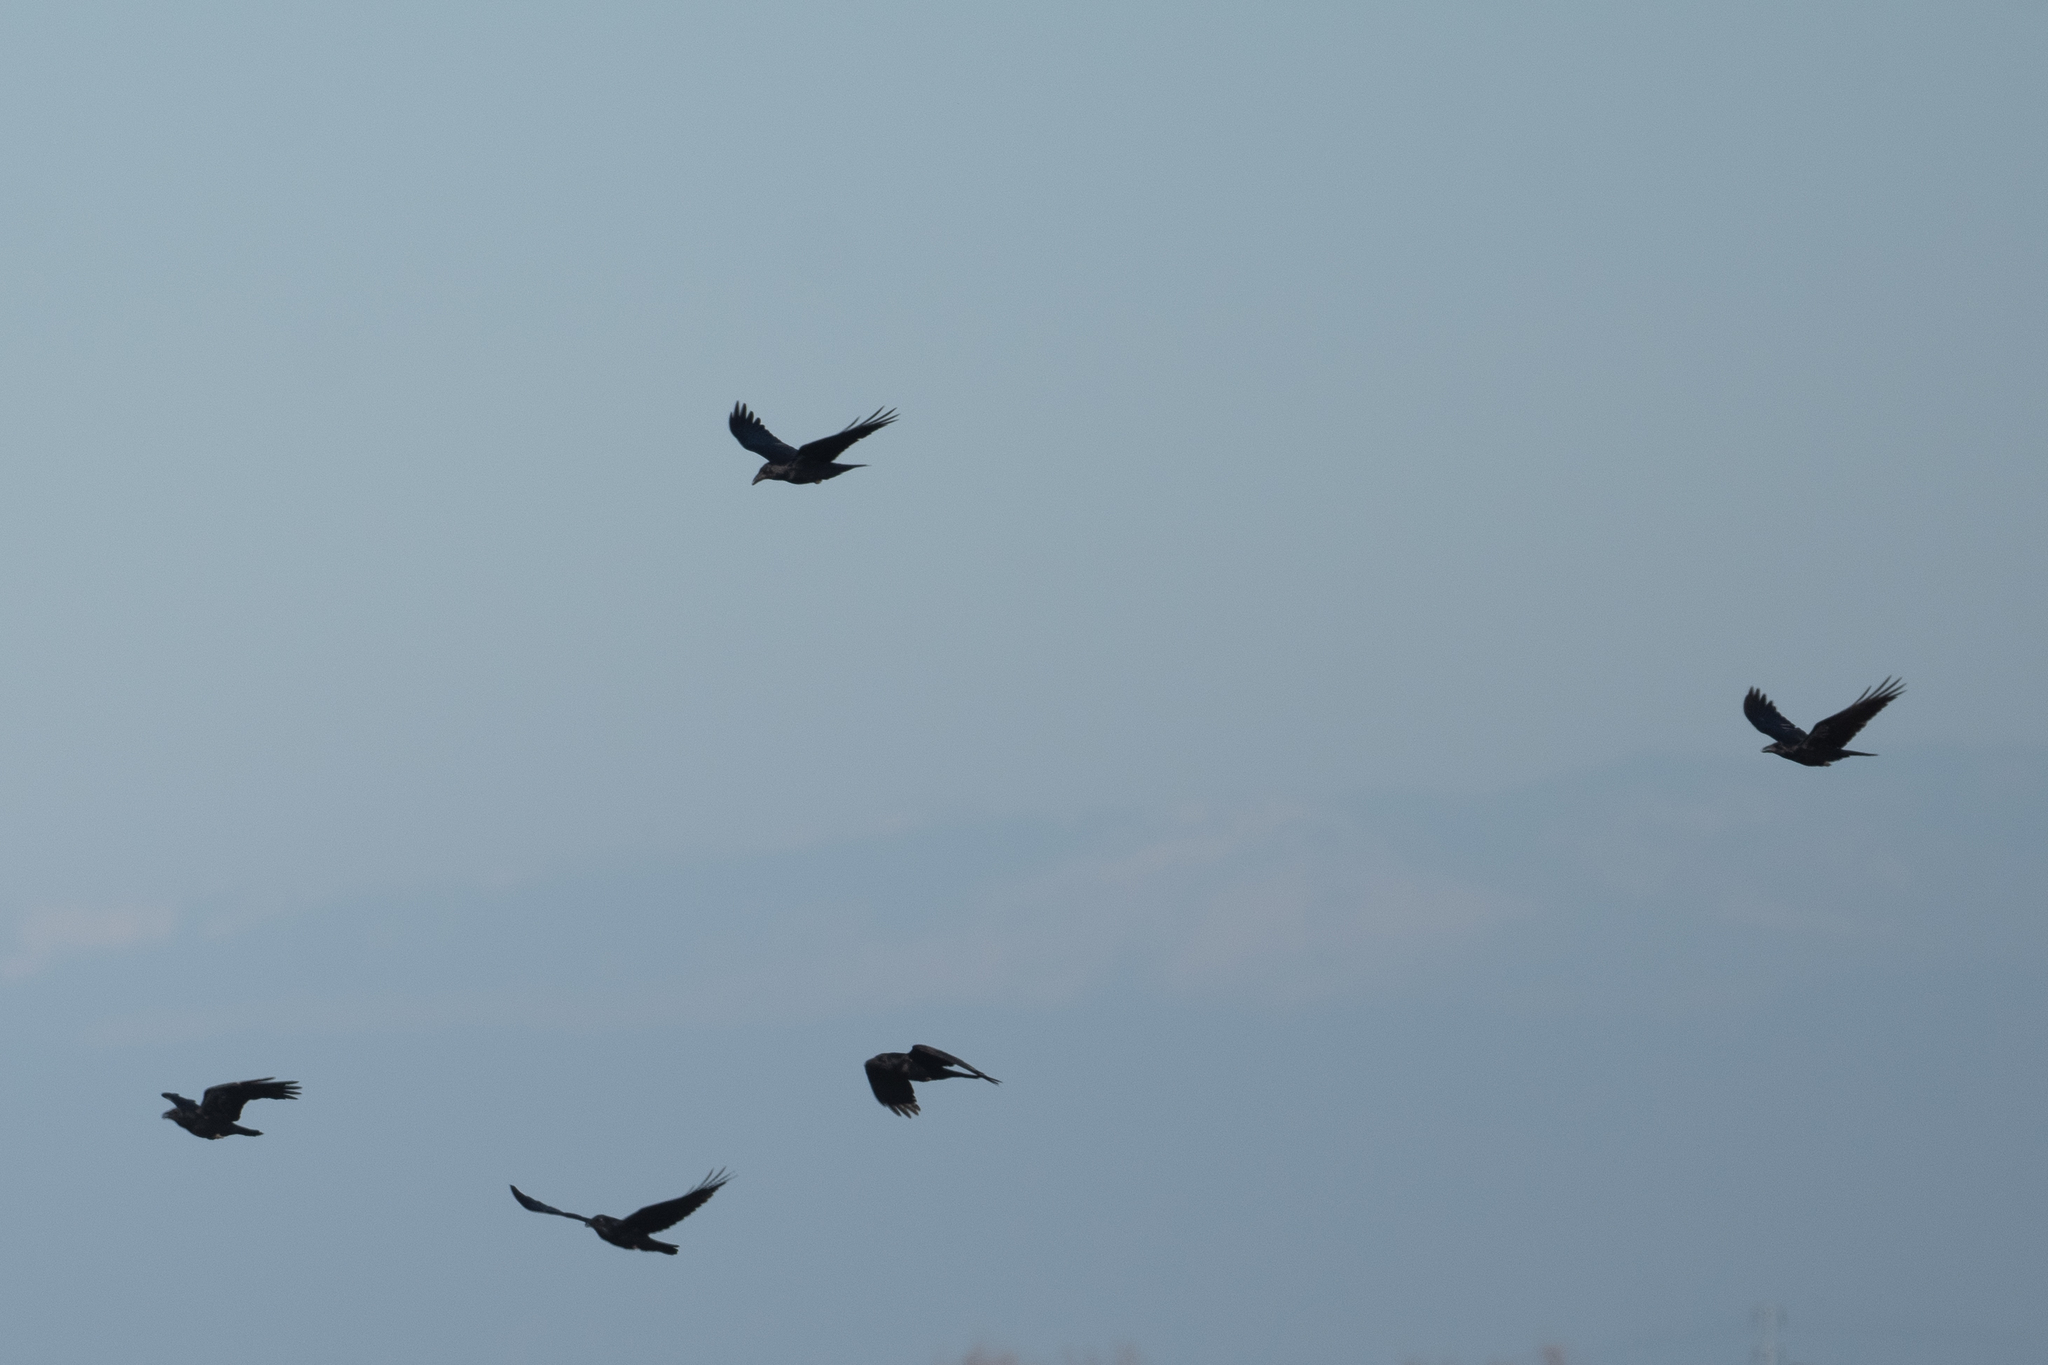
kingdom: Animalia
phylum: Chordata
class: Aves
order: Passeriformes
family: Corvidae
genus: Corvus
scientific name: Corvus corax
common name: Common raven
